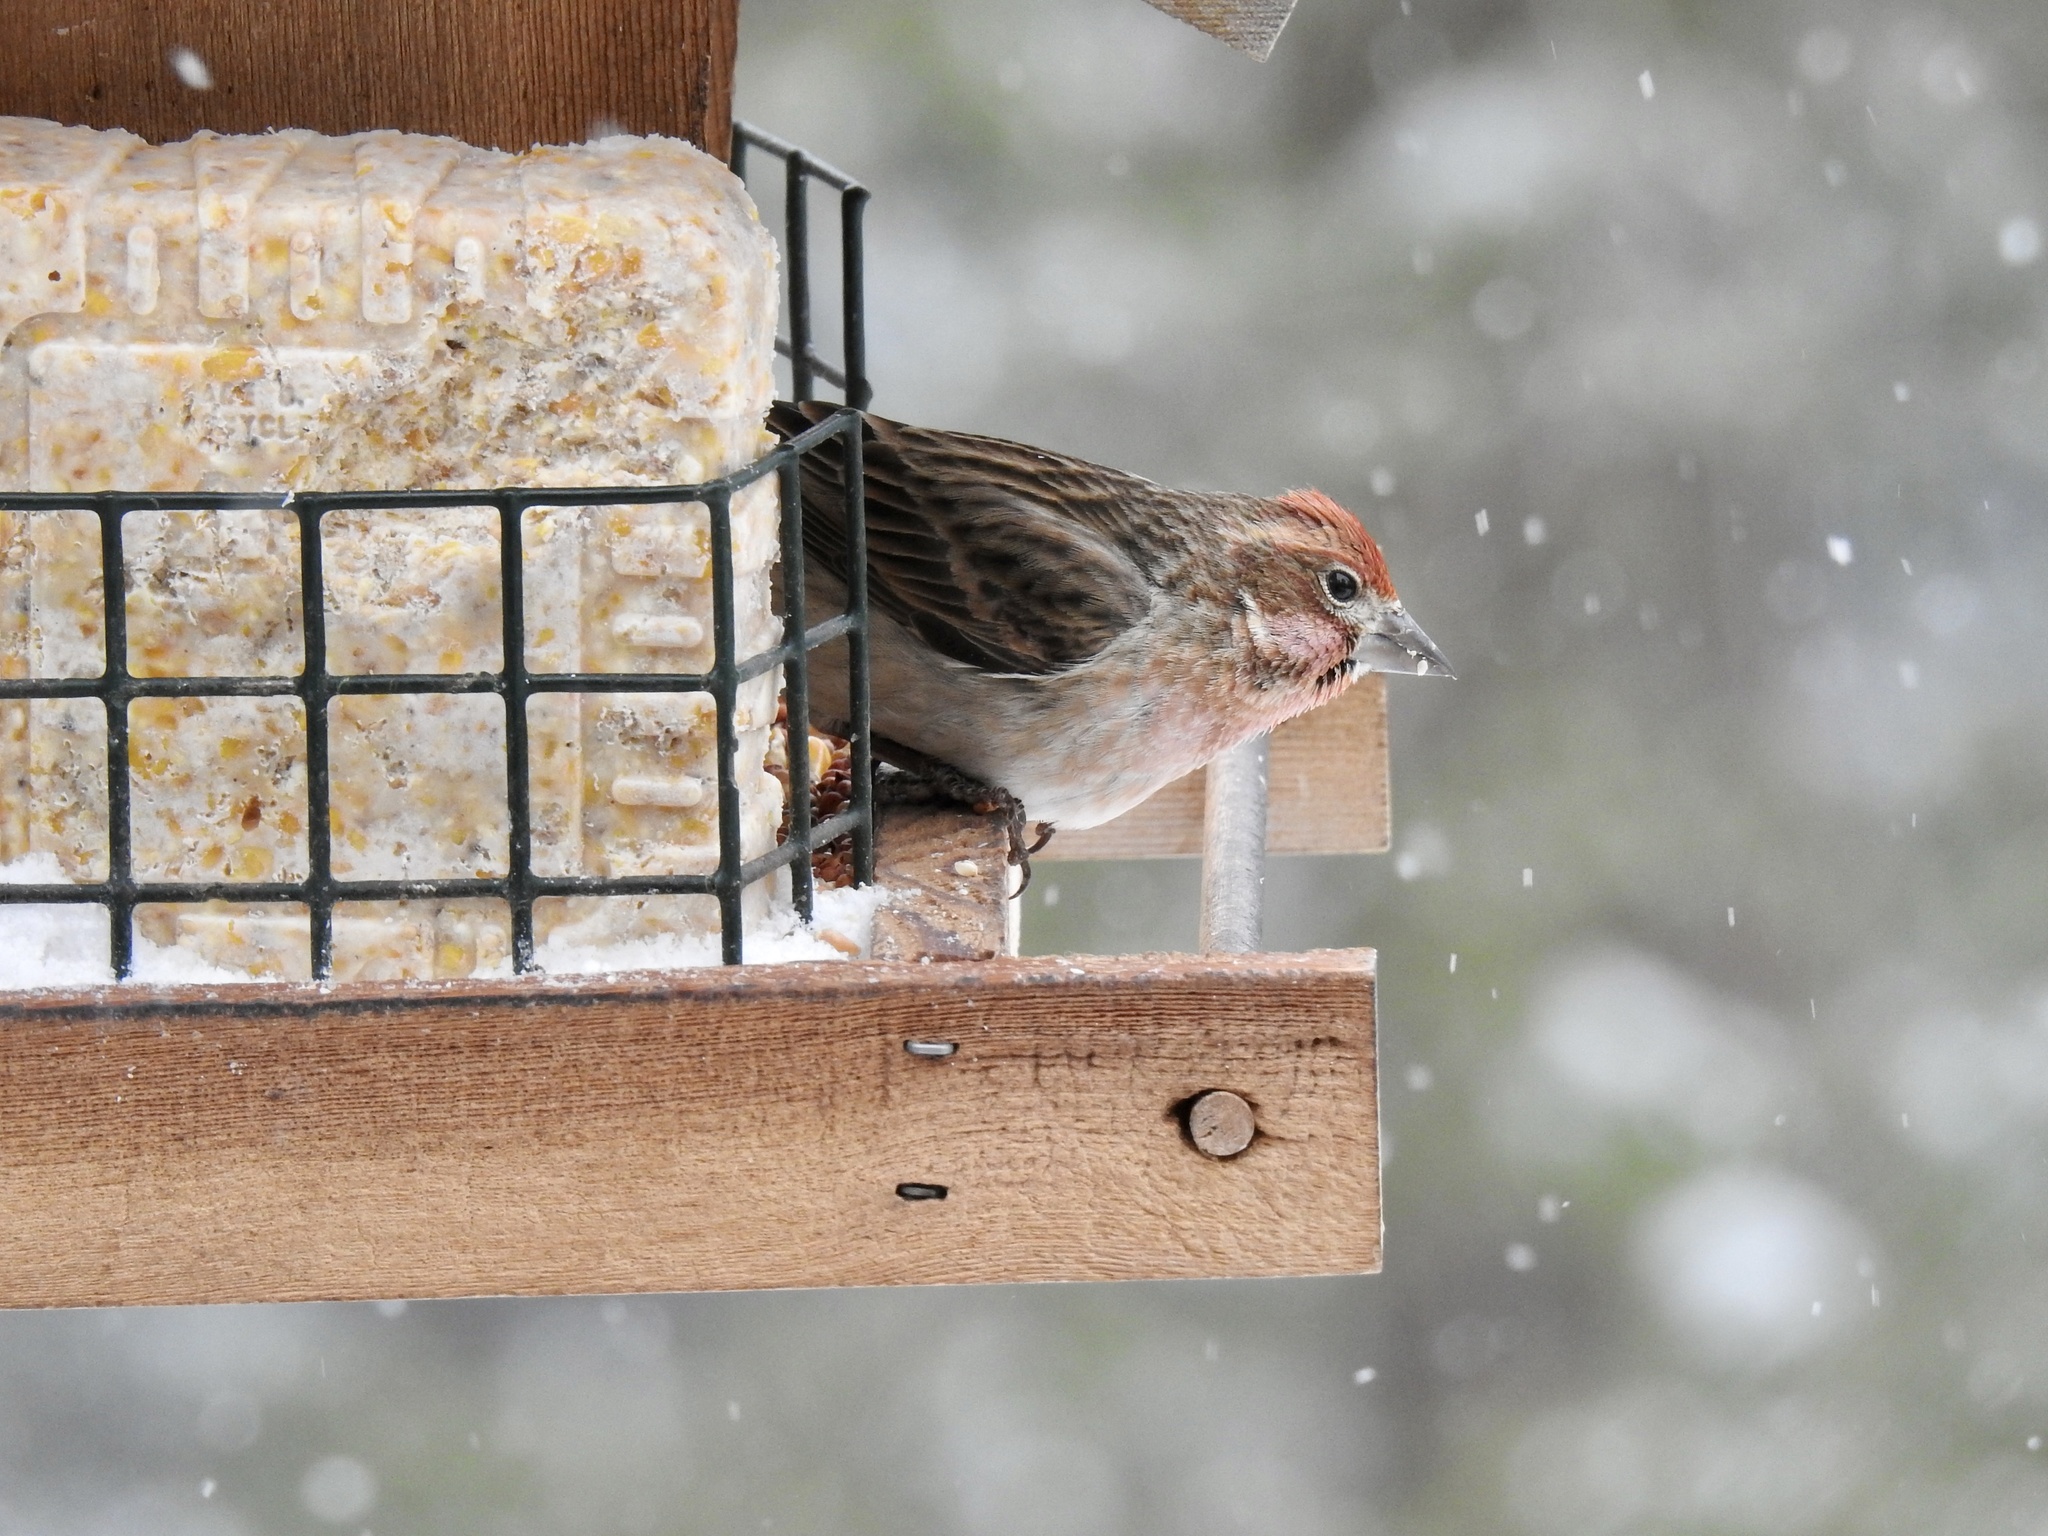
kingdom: Animalia
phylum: Chordata
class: Aves
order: Passeriformes
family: Fringillidae
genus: Haemorhous
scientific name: Haemorhous cassinii
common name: Cassin's finch
